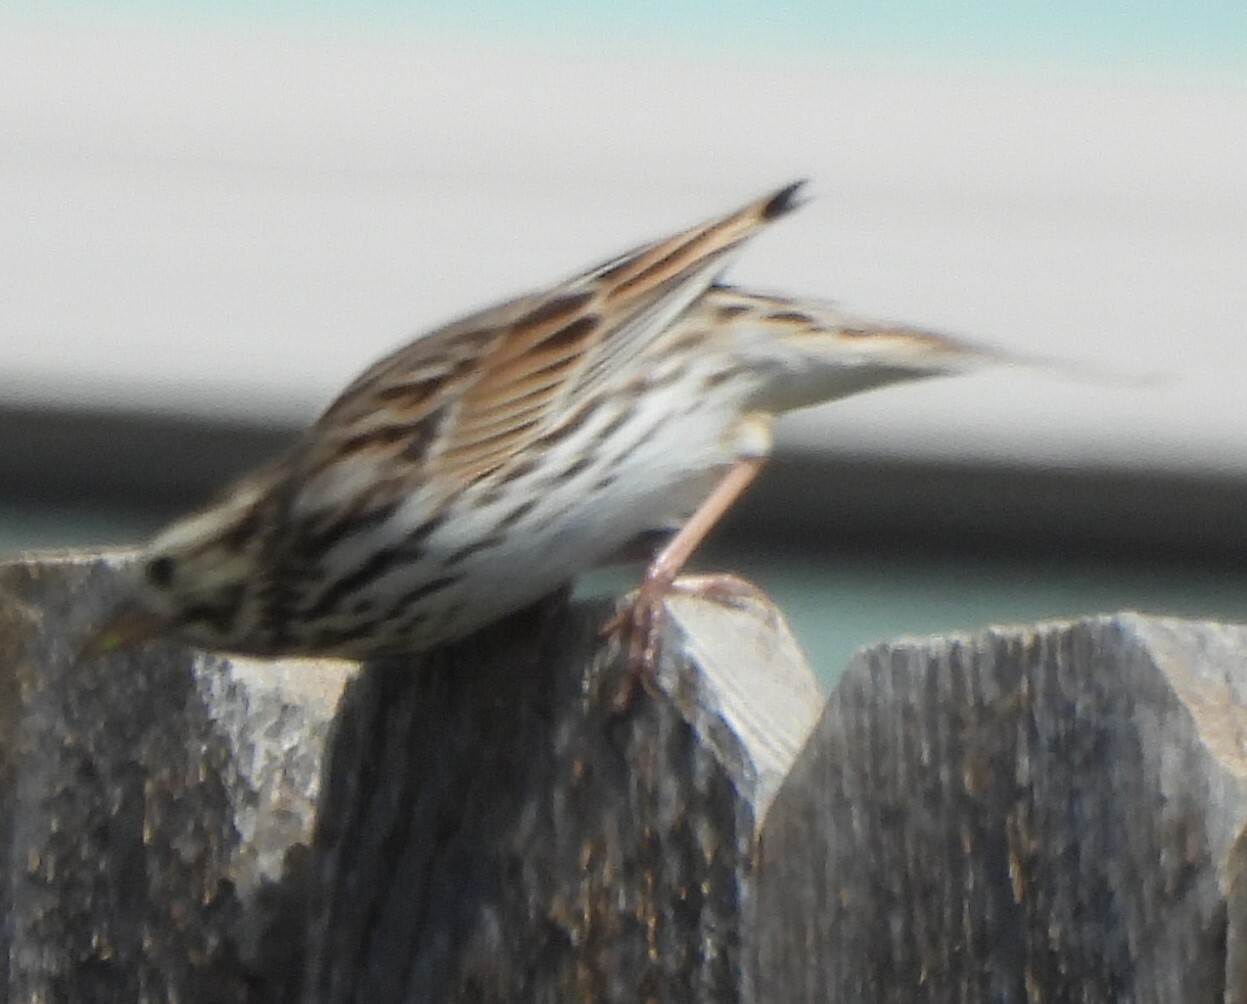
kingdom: Animalia
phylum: Chordata
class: Aves
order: Passeriformes
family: Passerellidae
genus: Passerculus
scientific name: Passerculus sandwichensis
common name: Savannah sparrow
